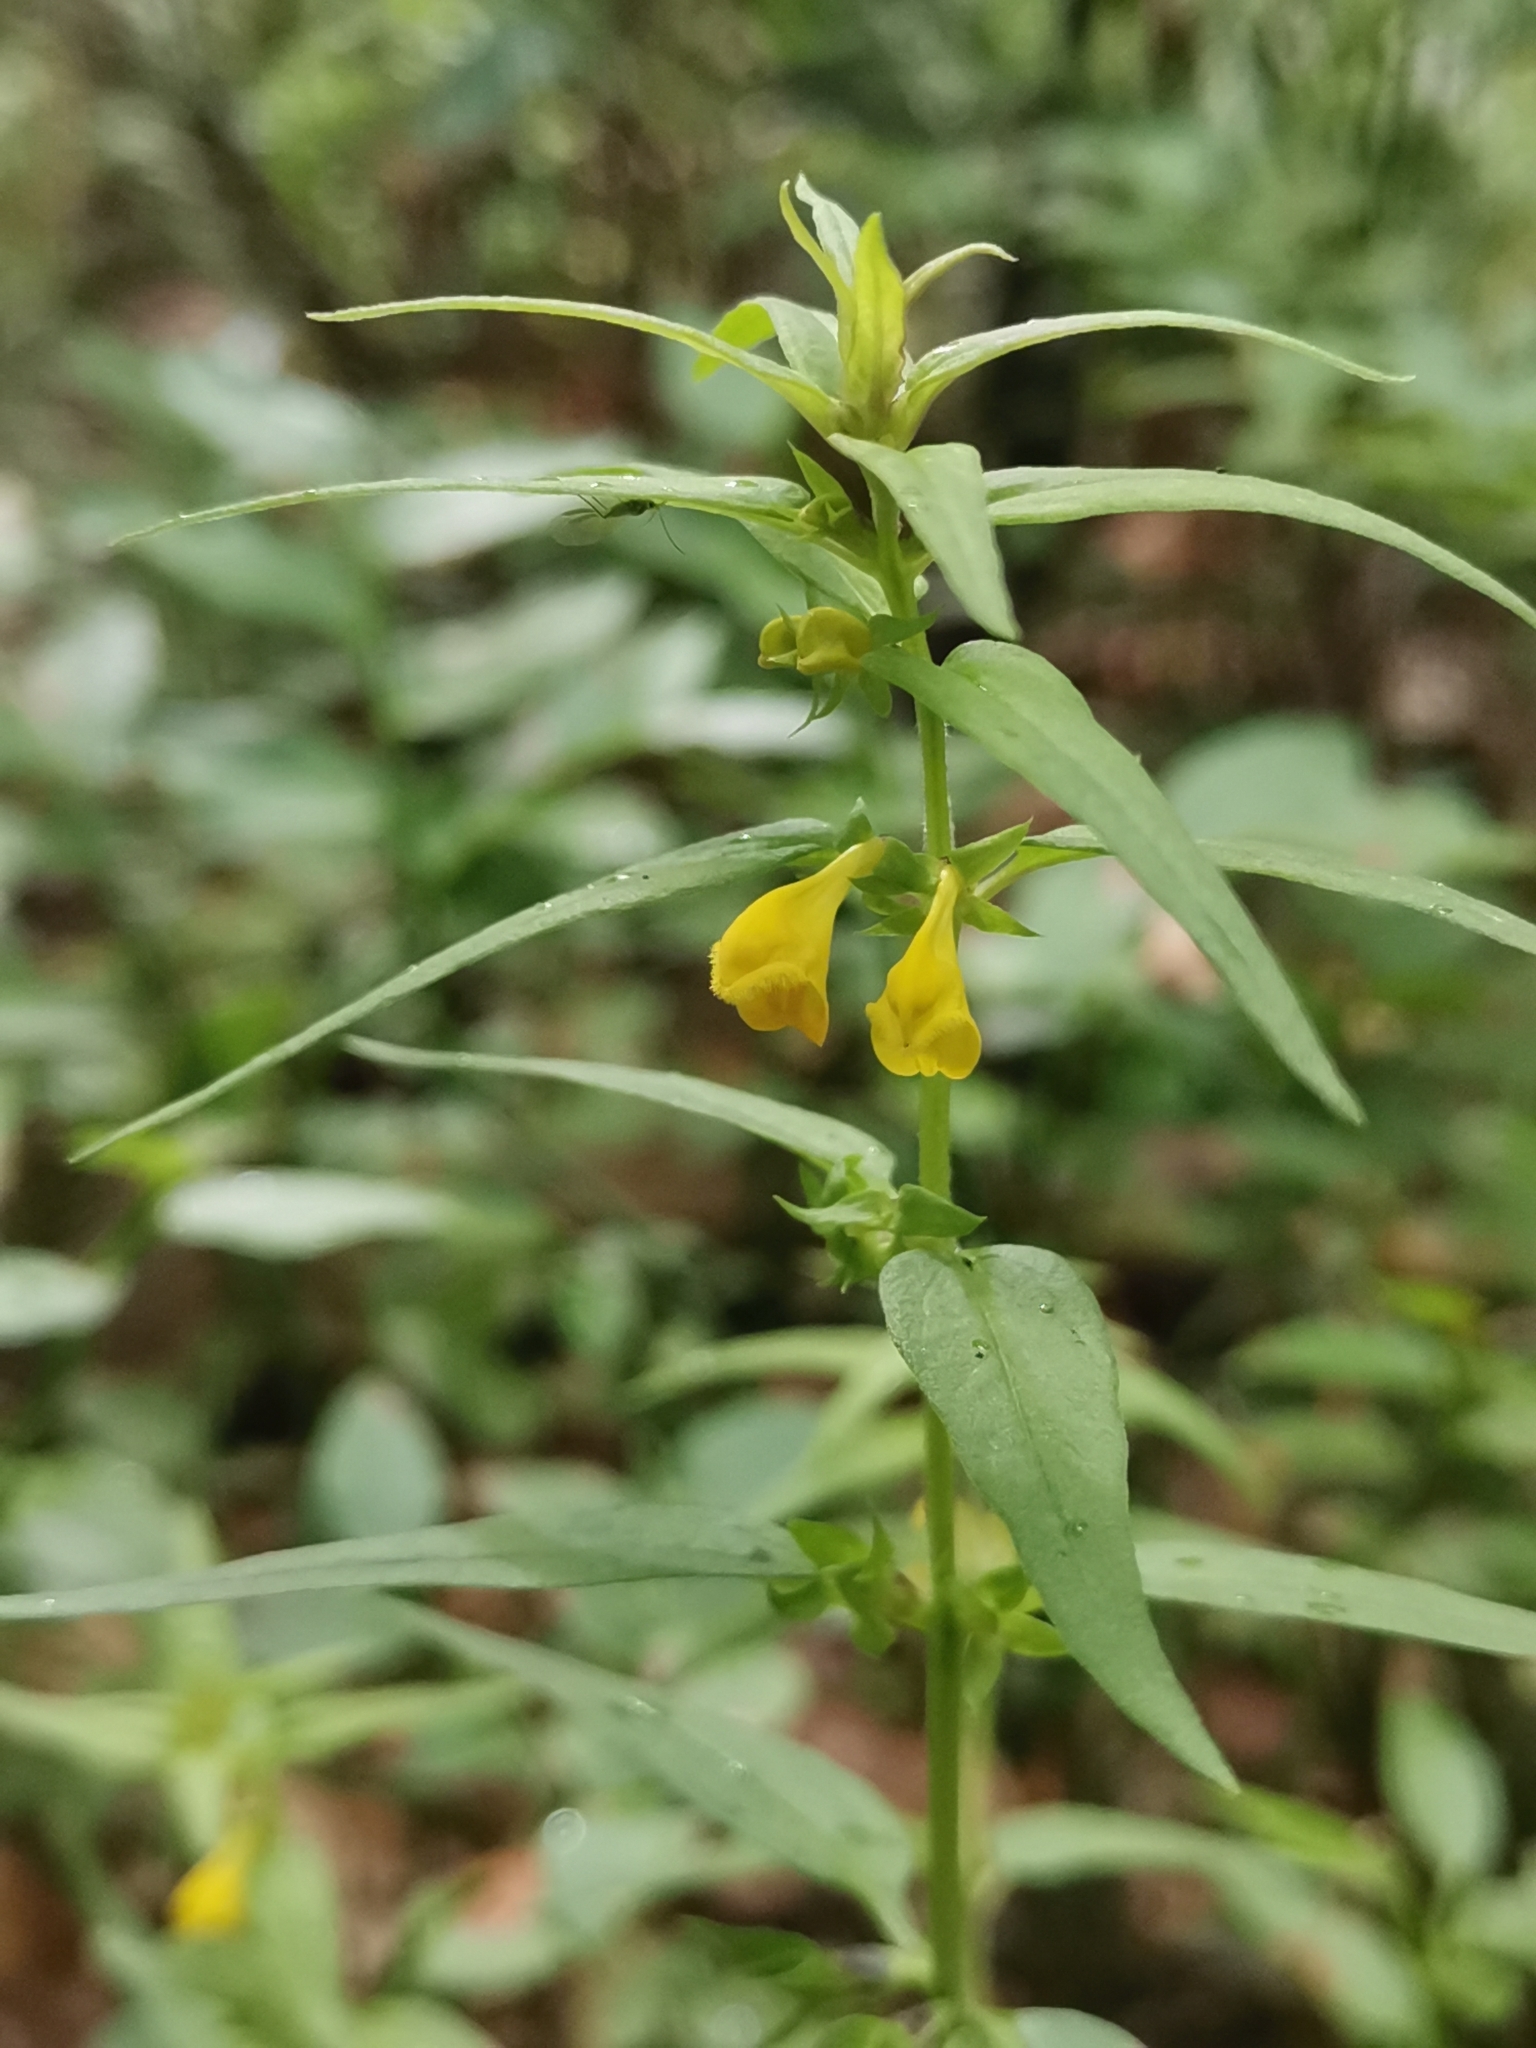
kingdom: Plantae
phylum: Tracheophyta
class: Magnoliopsida
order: Lamiales
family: Orobanchaceae
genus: Melampyrum
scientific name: Melampyrum sylvaticum
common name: Small cow-wheat
